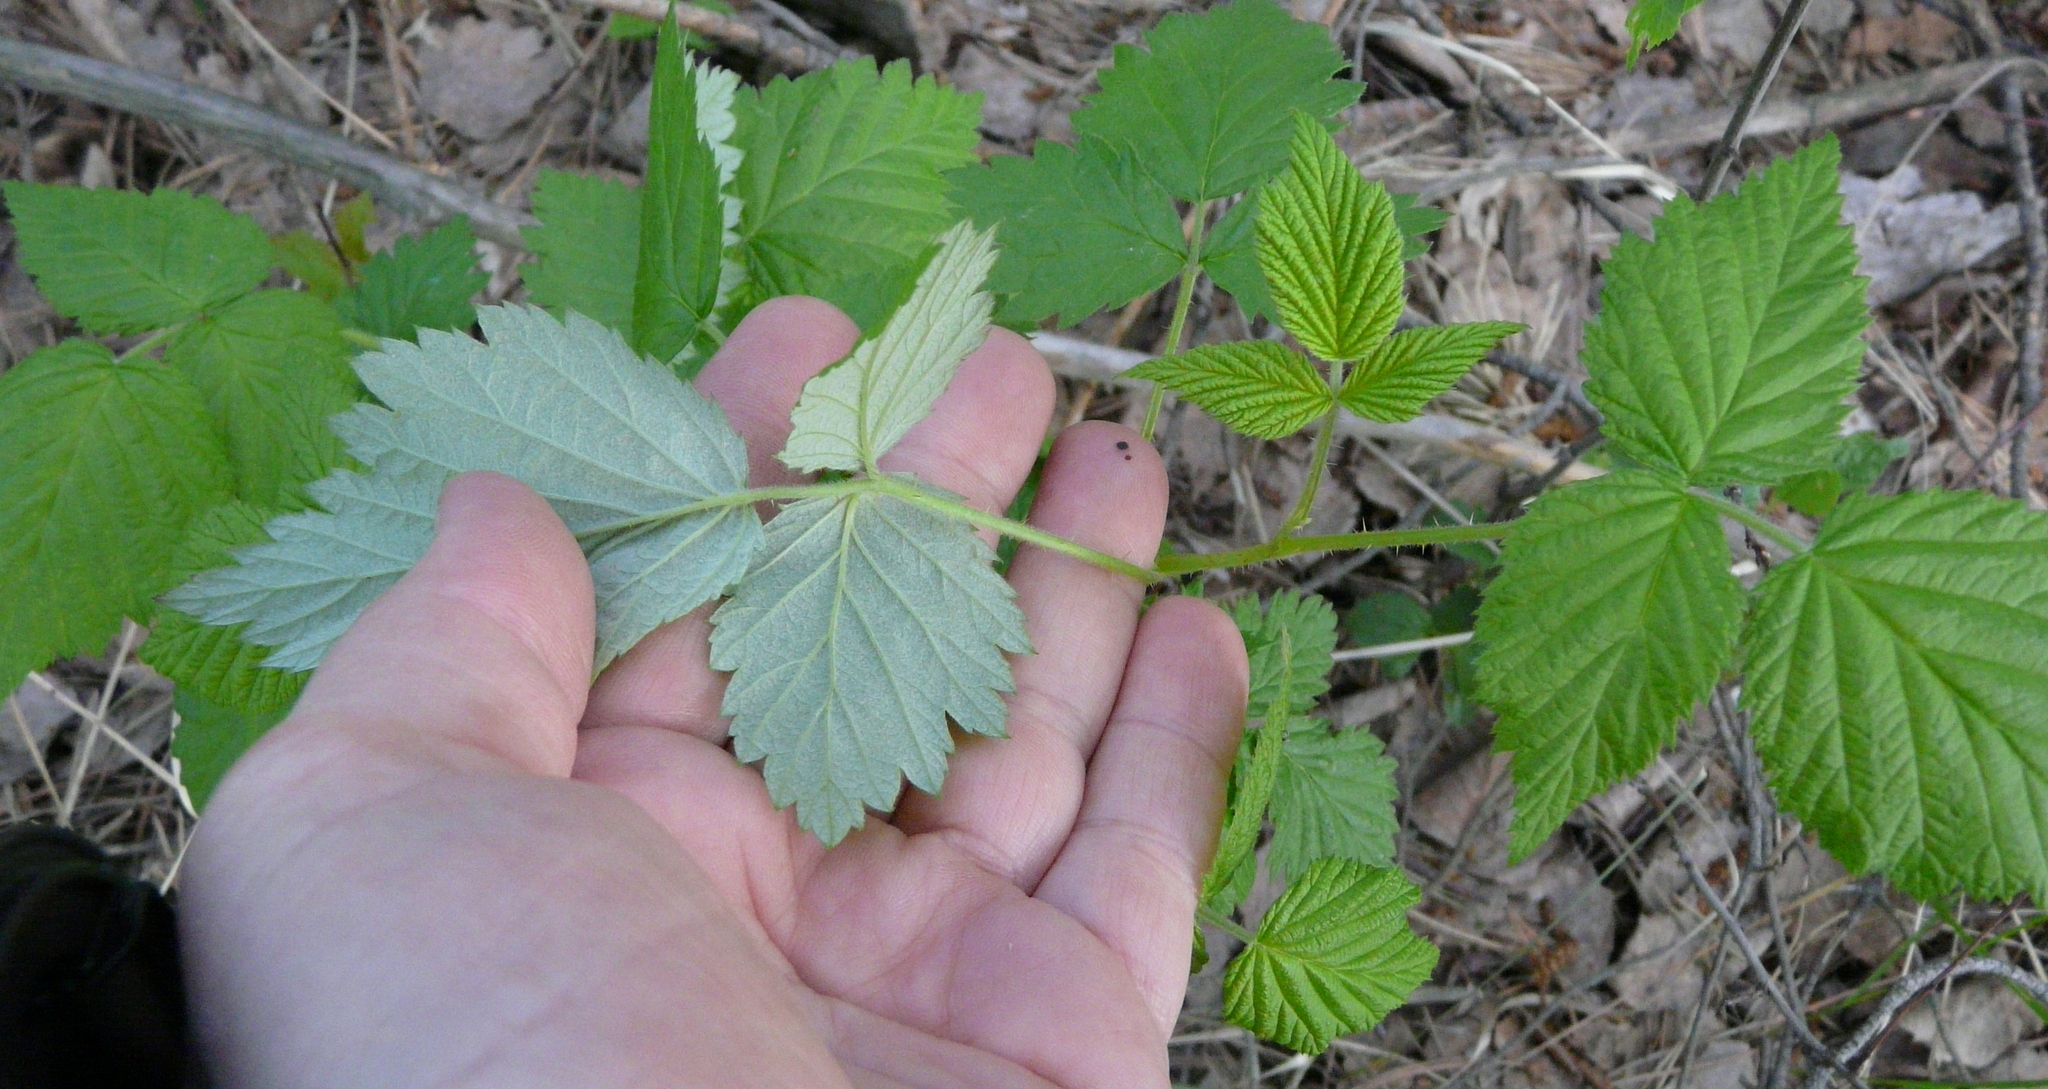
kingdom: Plantae
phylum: Tracheophyta
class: Magnoliopsida
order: Rosales
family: Rosaceae
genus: Rubus
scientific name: Rubus idaeus
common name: Raspberry
